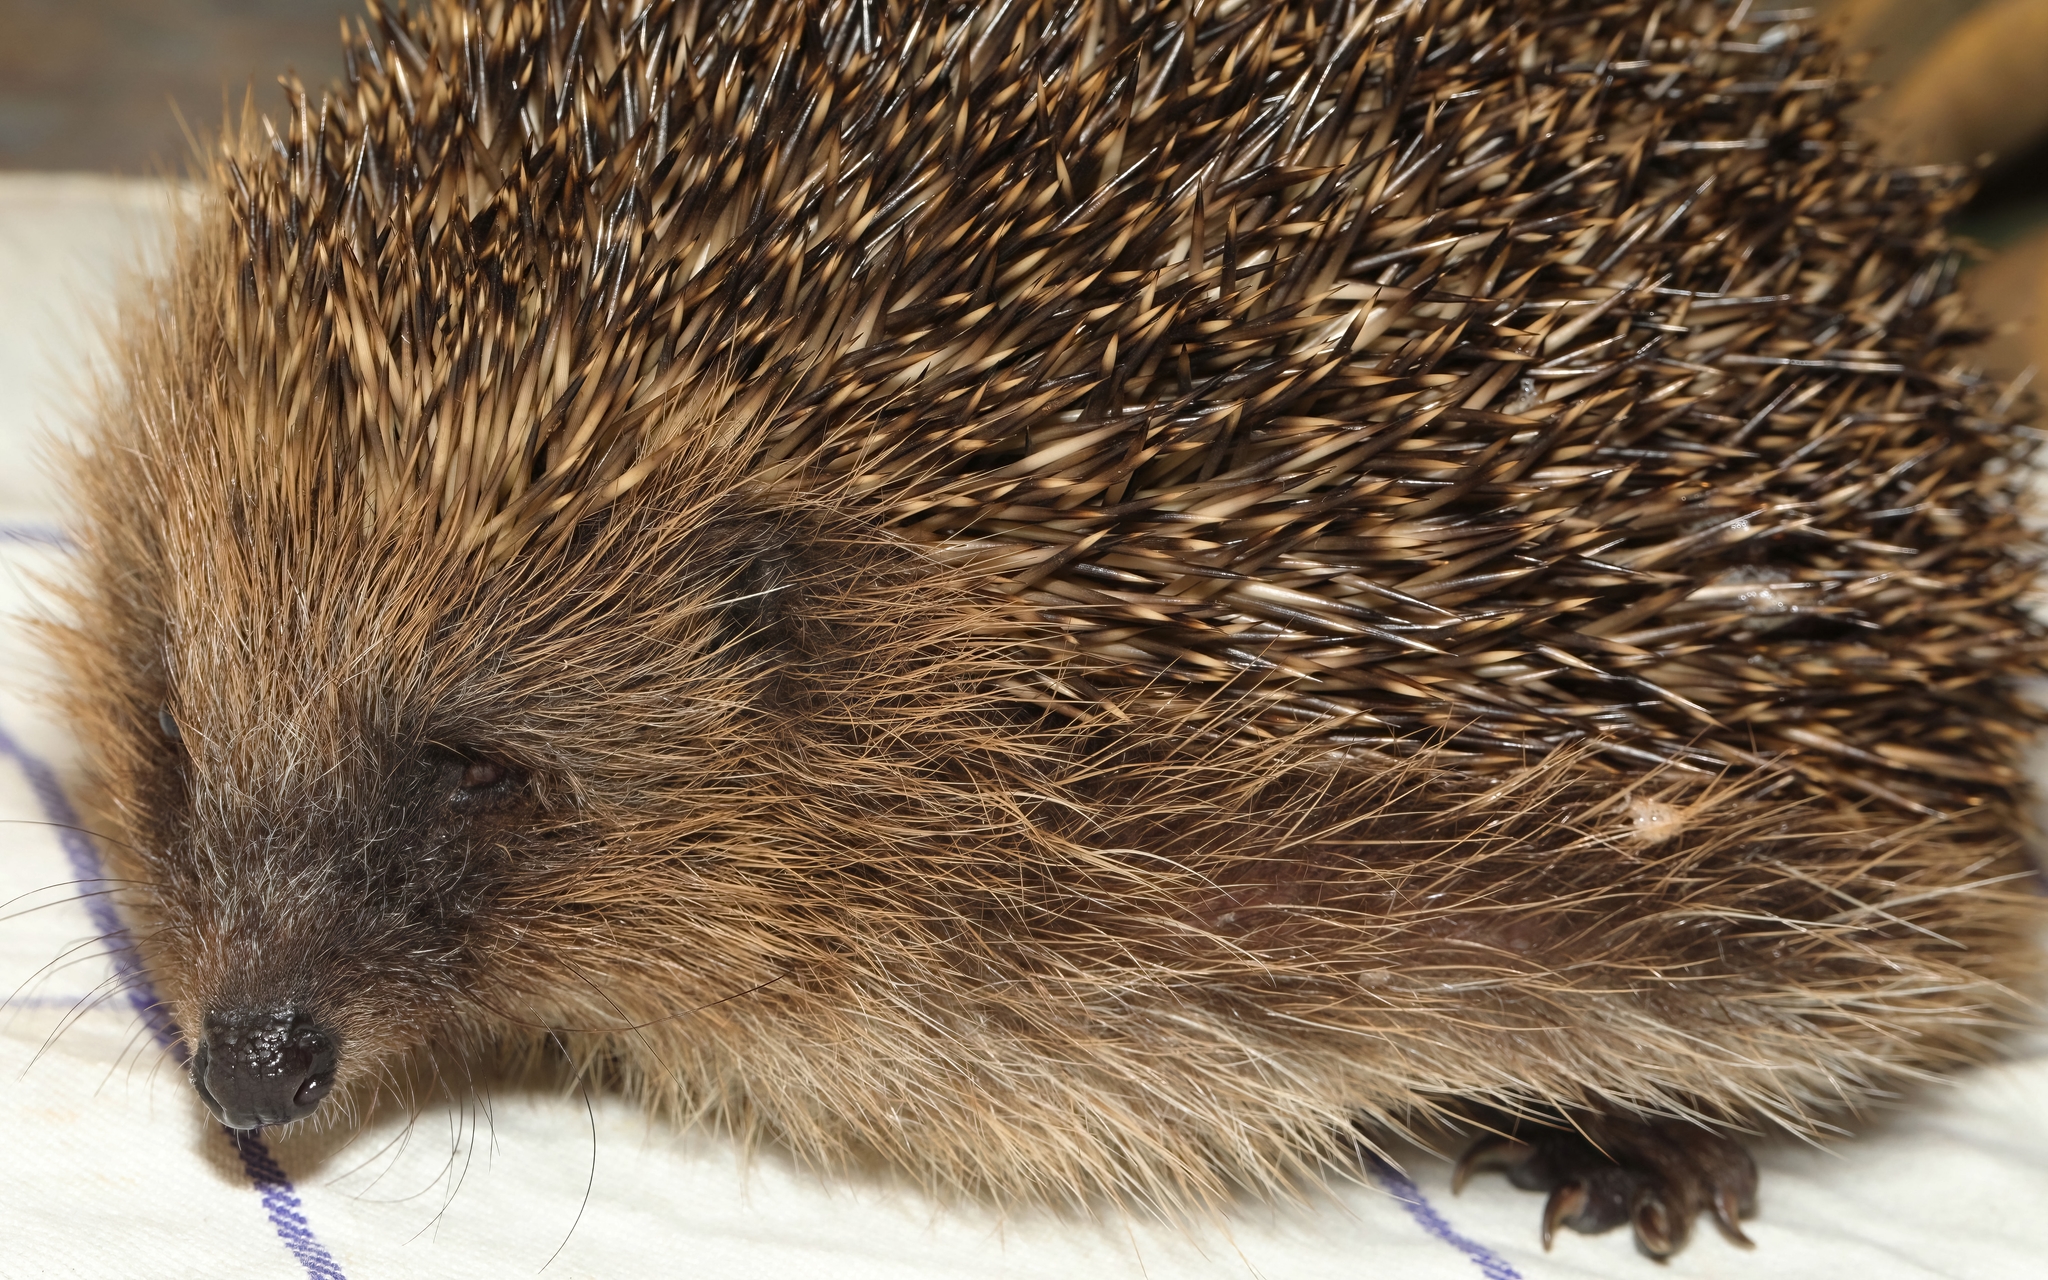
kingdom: Animalia
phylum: Chordata
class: Mammalia
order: Erinaceomorpha
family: Erinaceidae
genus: Erinaceus
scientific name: Erinaceus europaeus
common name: West european hedgehog
